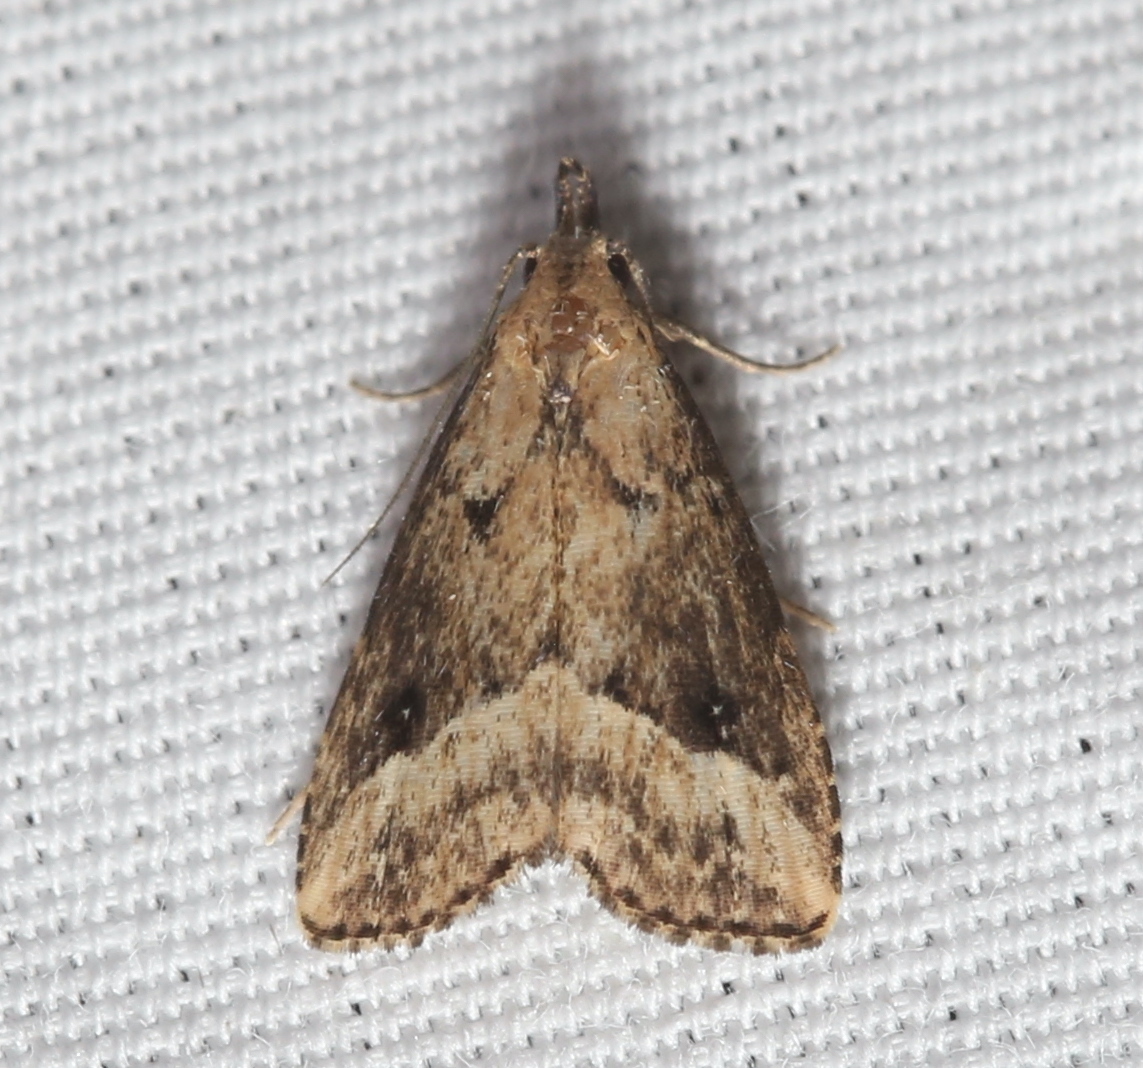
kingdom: Animalia
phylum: Arthropoda
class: Insecta
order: Lepidoptera
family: Erebidae
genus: Schrankia
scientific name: Schrankia
